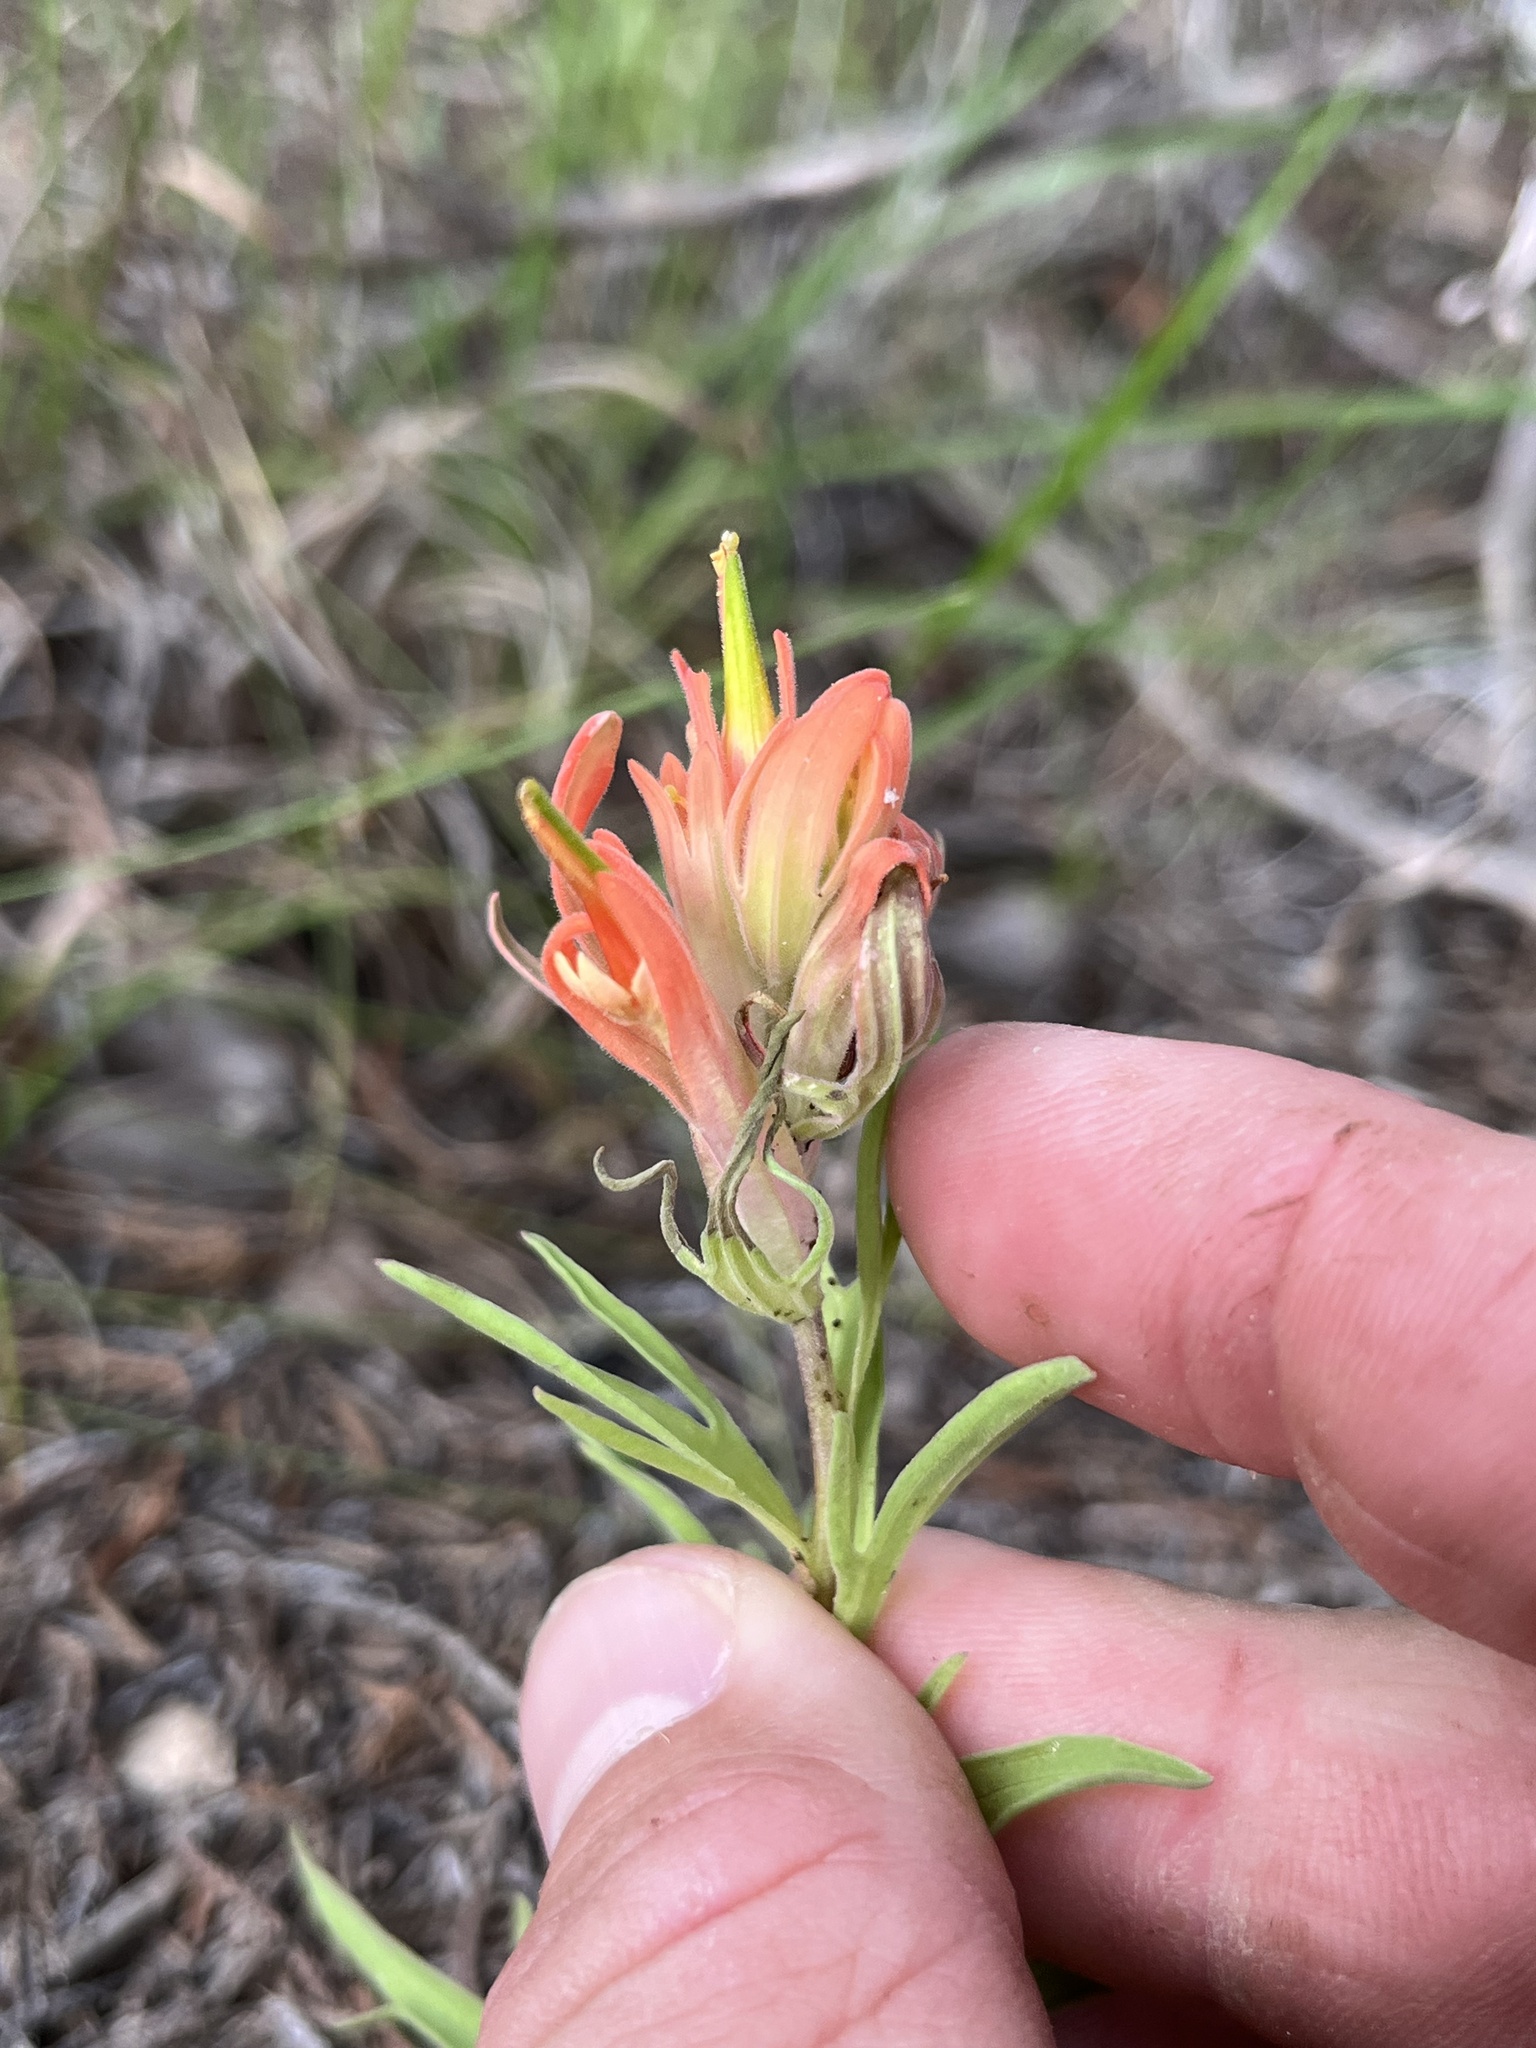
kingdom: Plantae
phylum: Tracheophyta
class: Magnoliopsida
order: Lamiales
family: Orobanchaceae
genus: Castilleja
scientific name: Castilleja lindheimeri
